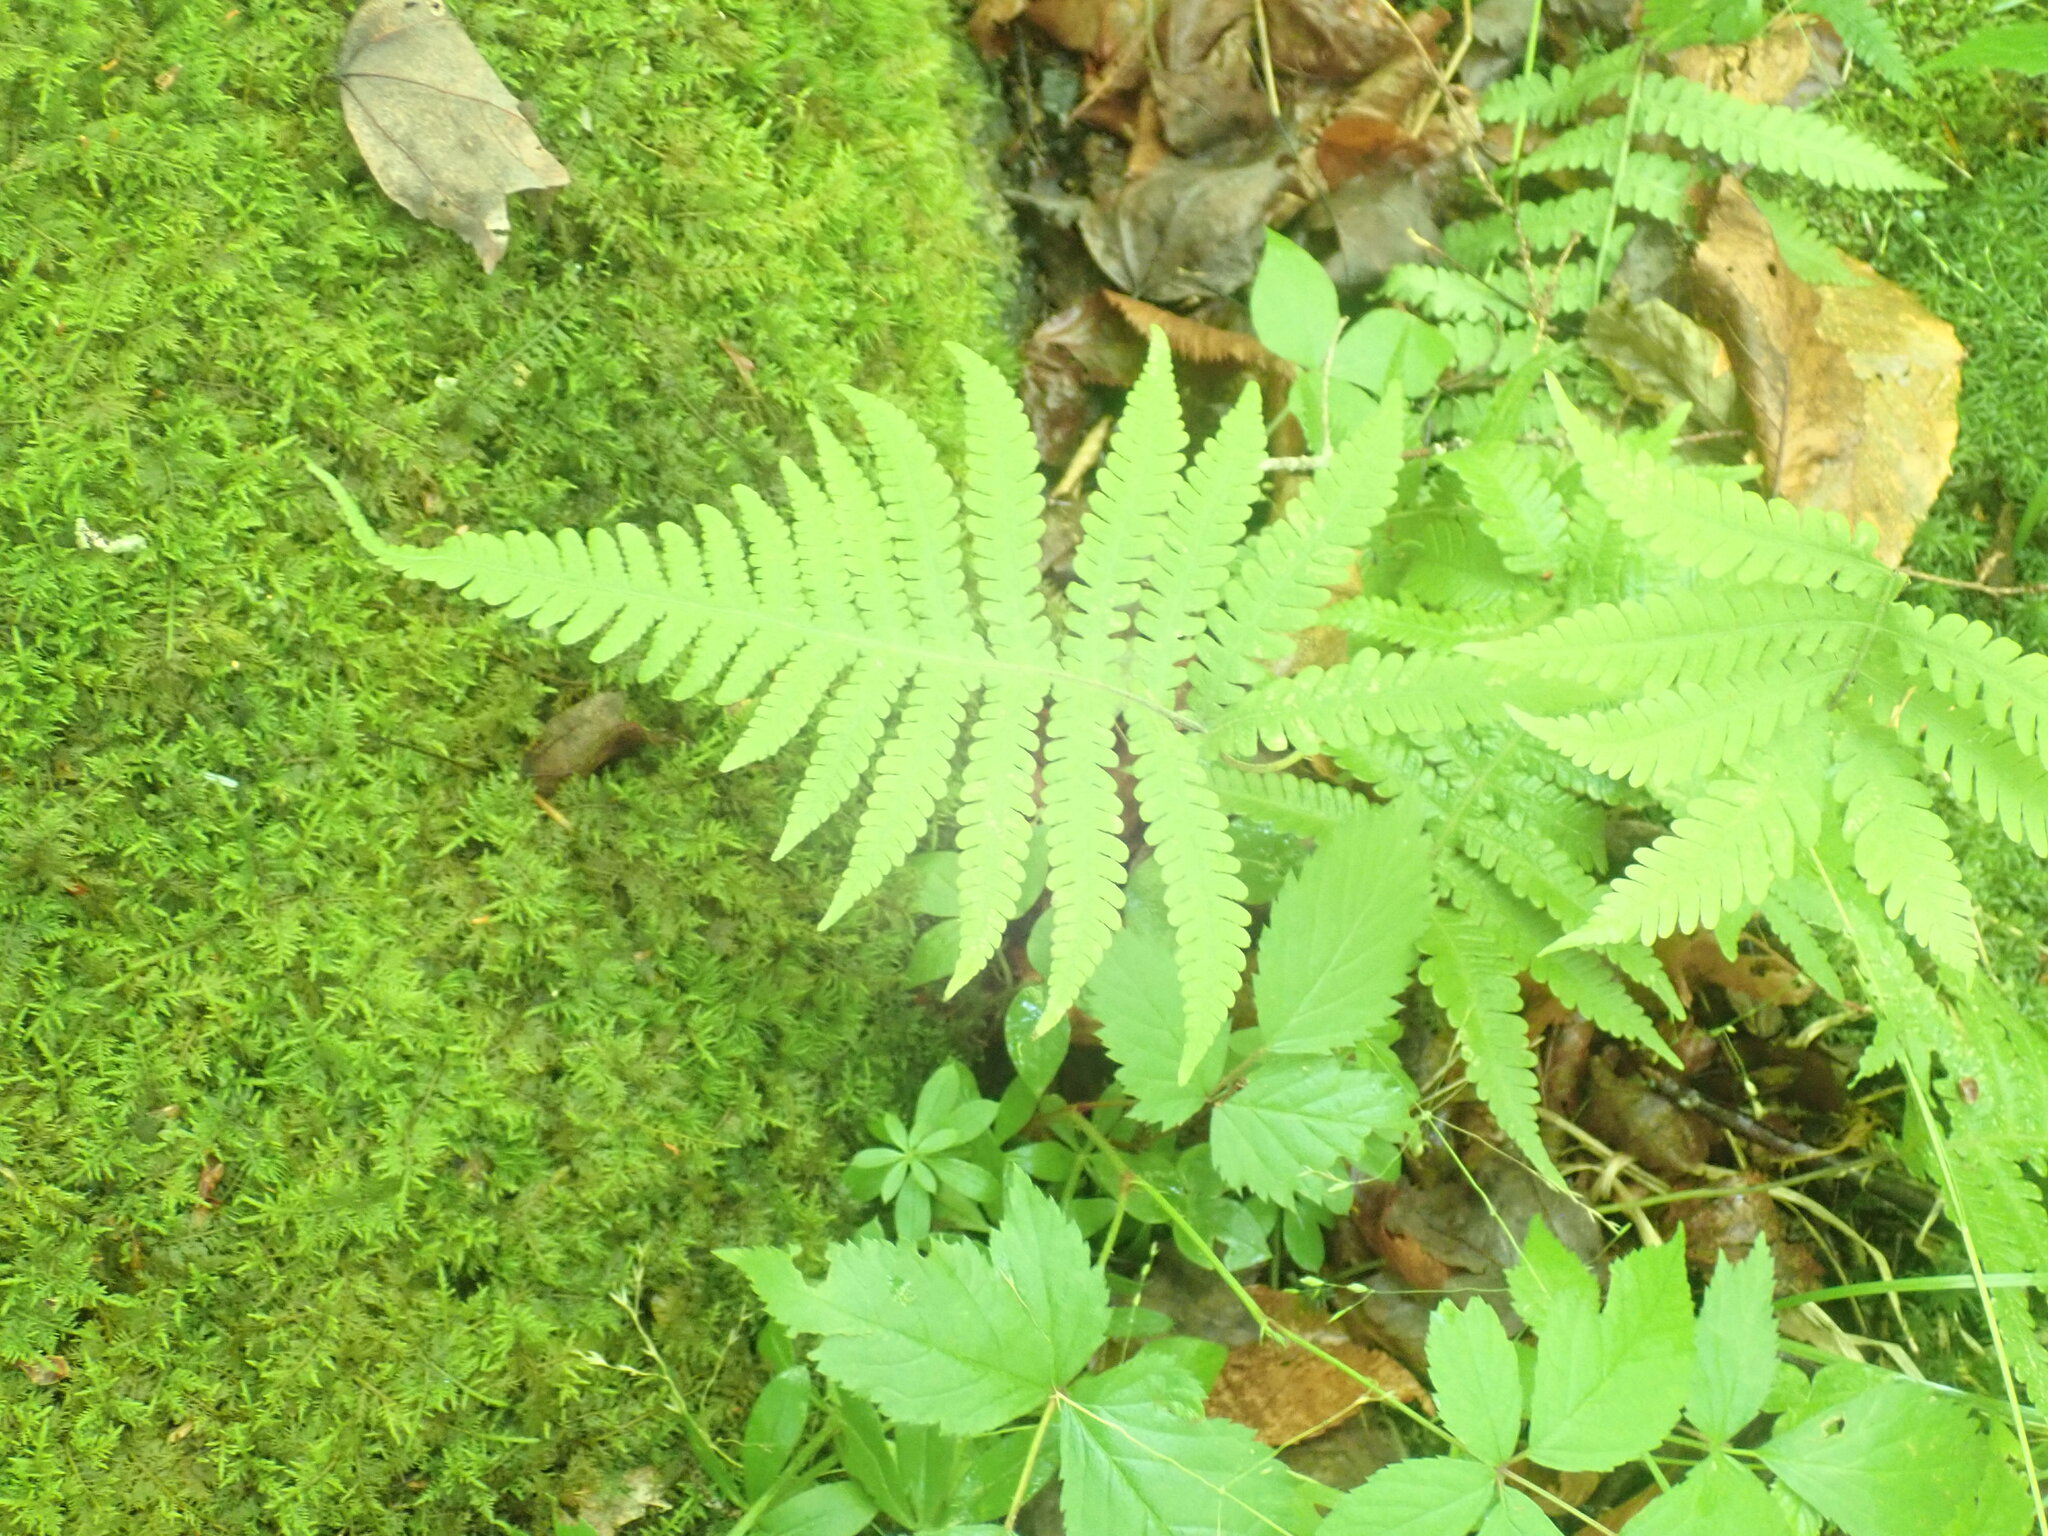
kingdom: Plantae
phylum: Tracheophyta
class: Polypodiopsida
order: Polypodiales
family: Thelypteridaceae
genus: Phegopteris
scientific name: Phegopteris connectilis
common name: Beech fern
